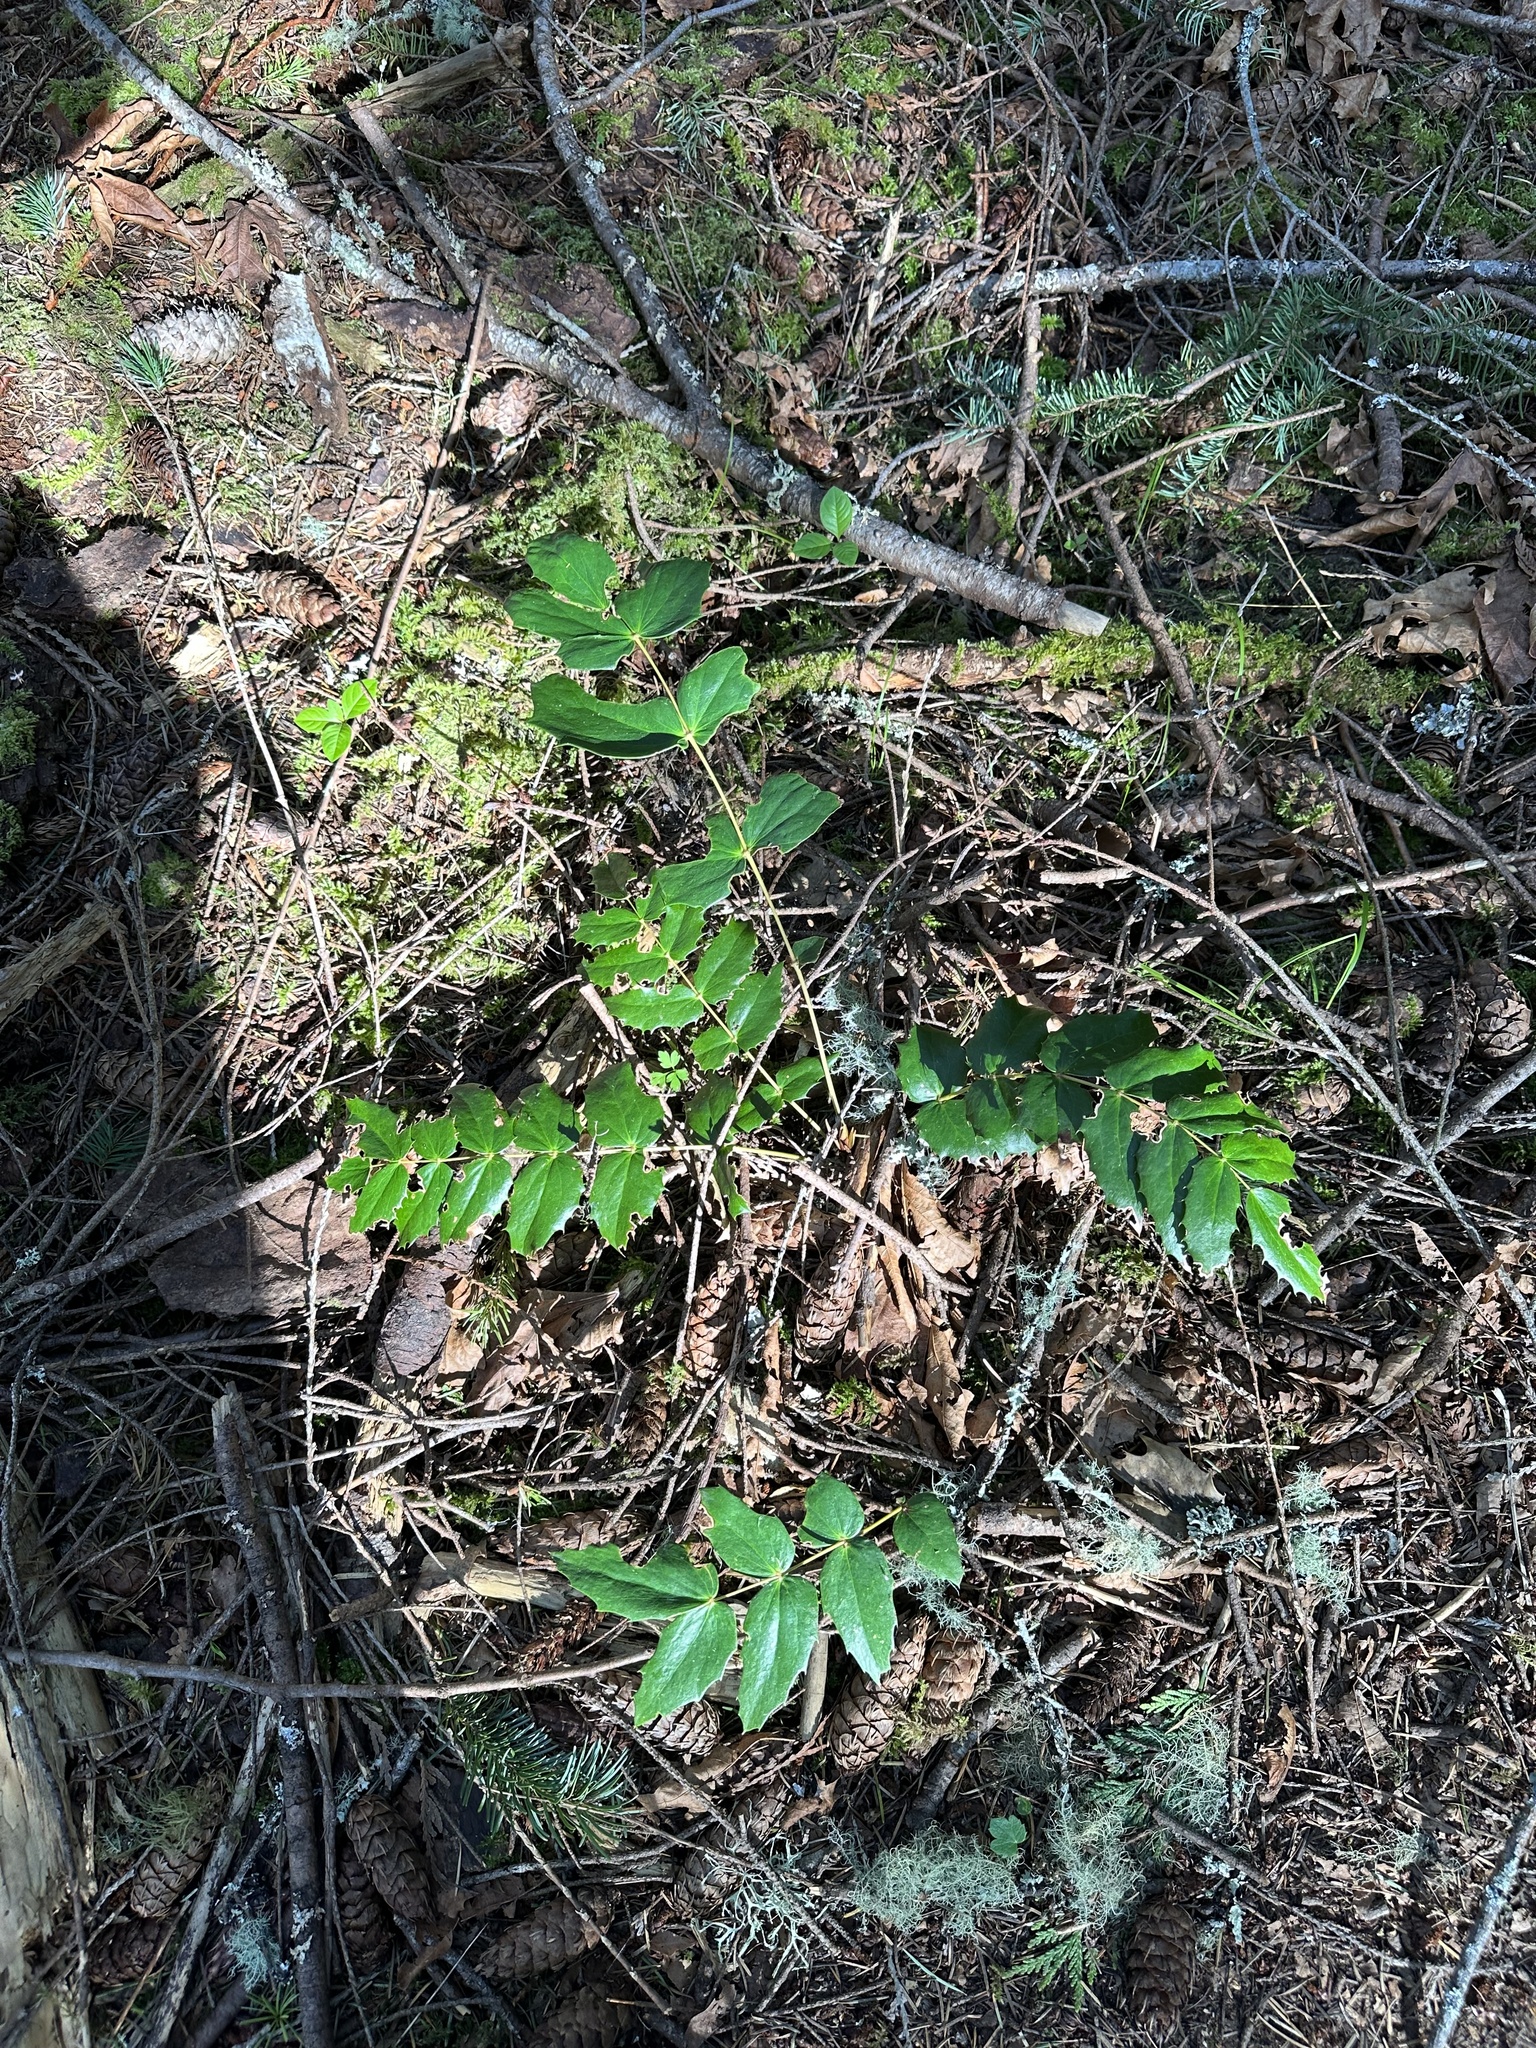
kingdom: Plantae
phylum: Tracheophyta
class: Magnoliopsida
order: Ranunculales
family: Berberidaceae
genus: Mahonia
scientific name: Mahonia nervosa
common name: Cascade oregon-grape
